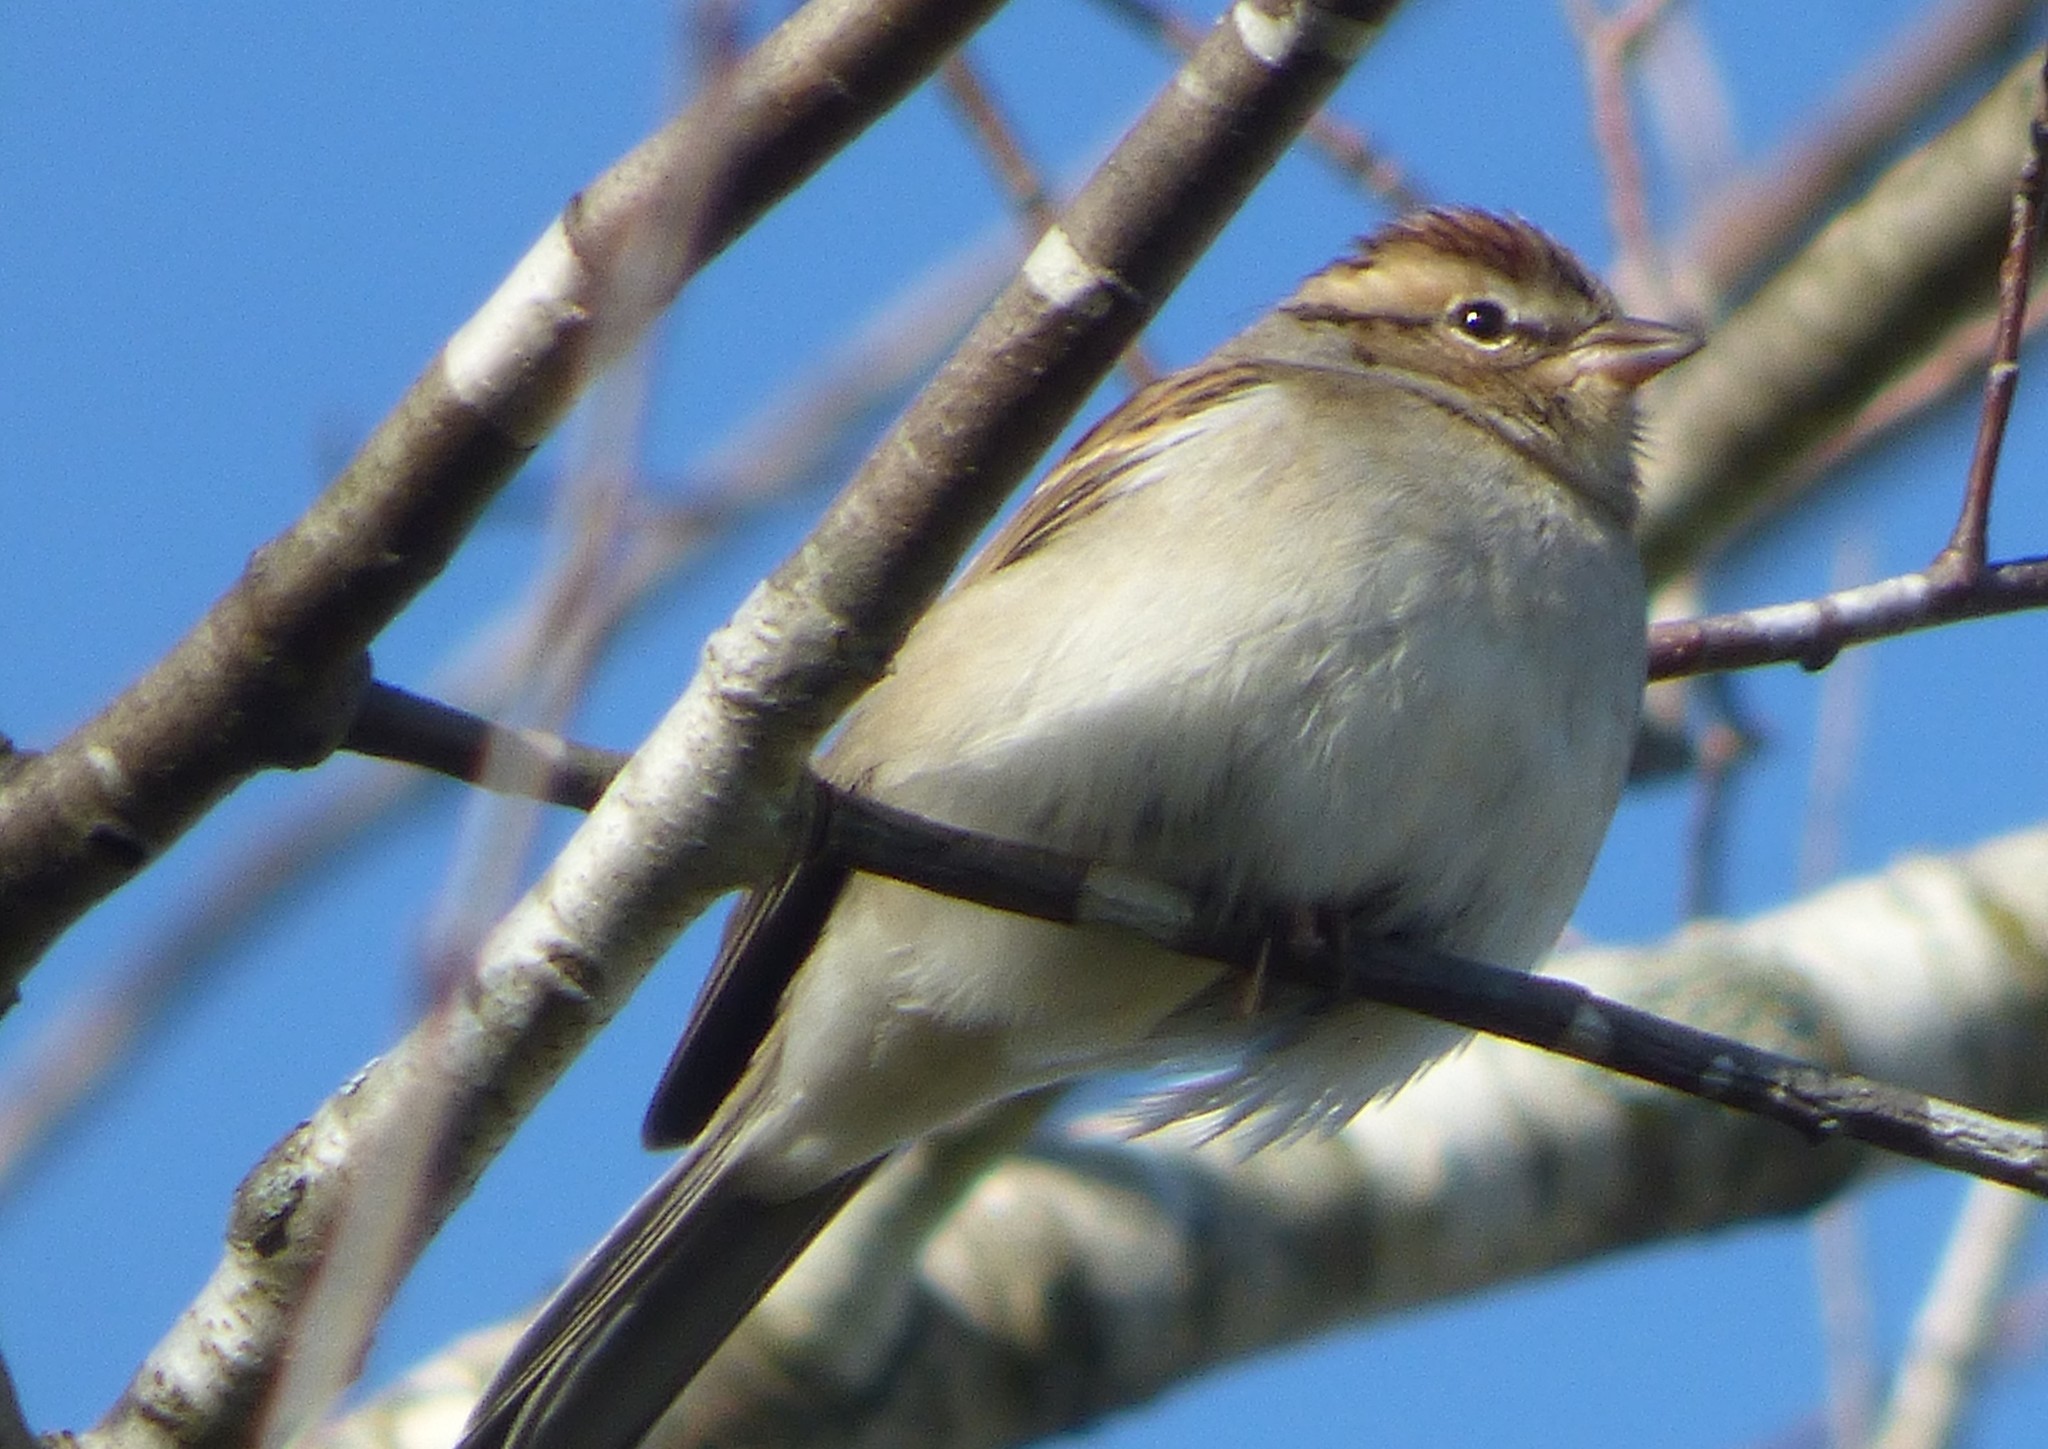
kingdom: Animalia
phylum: Chordata
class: Aves
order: Passeriformes
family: Passerellidae
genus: Spizella
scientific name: Spizella passerina
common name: Chipping sparrow
